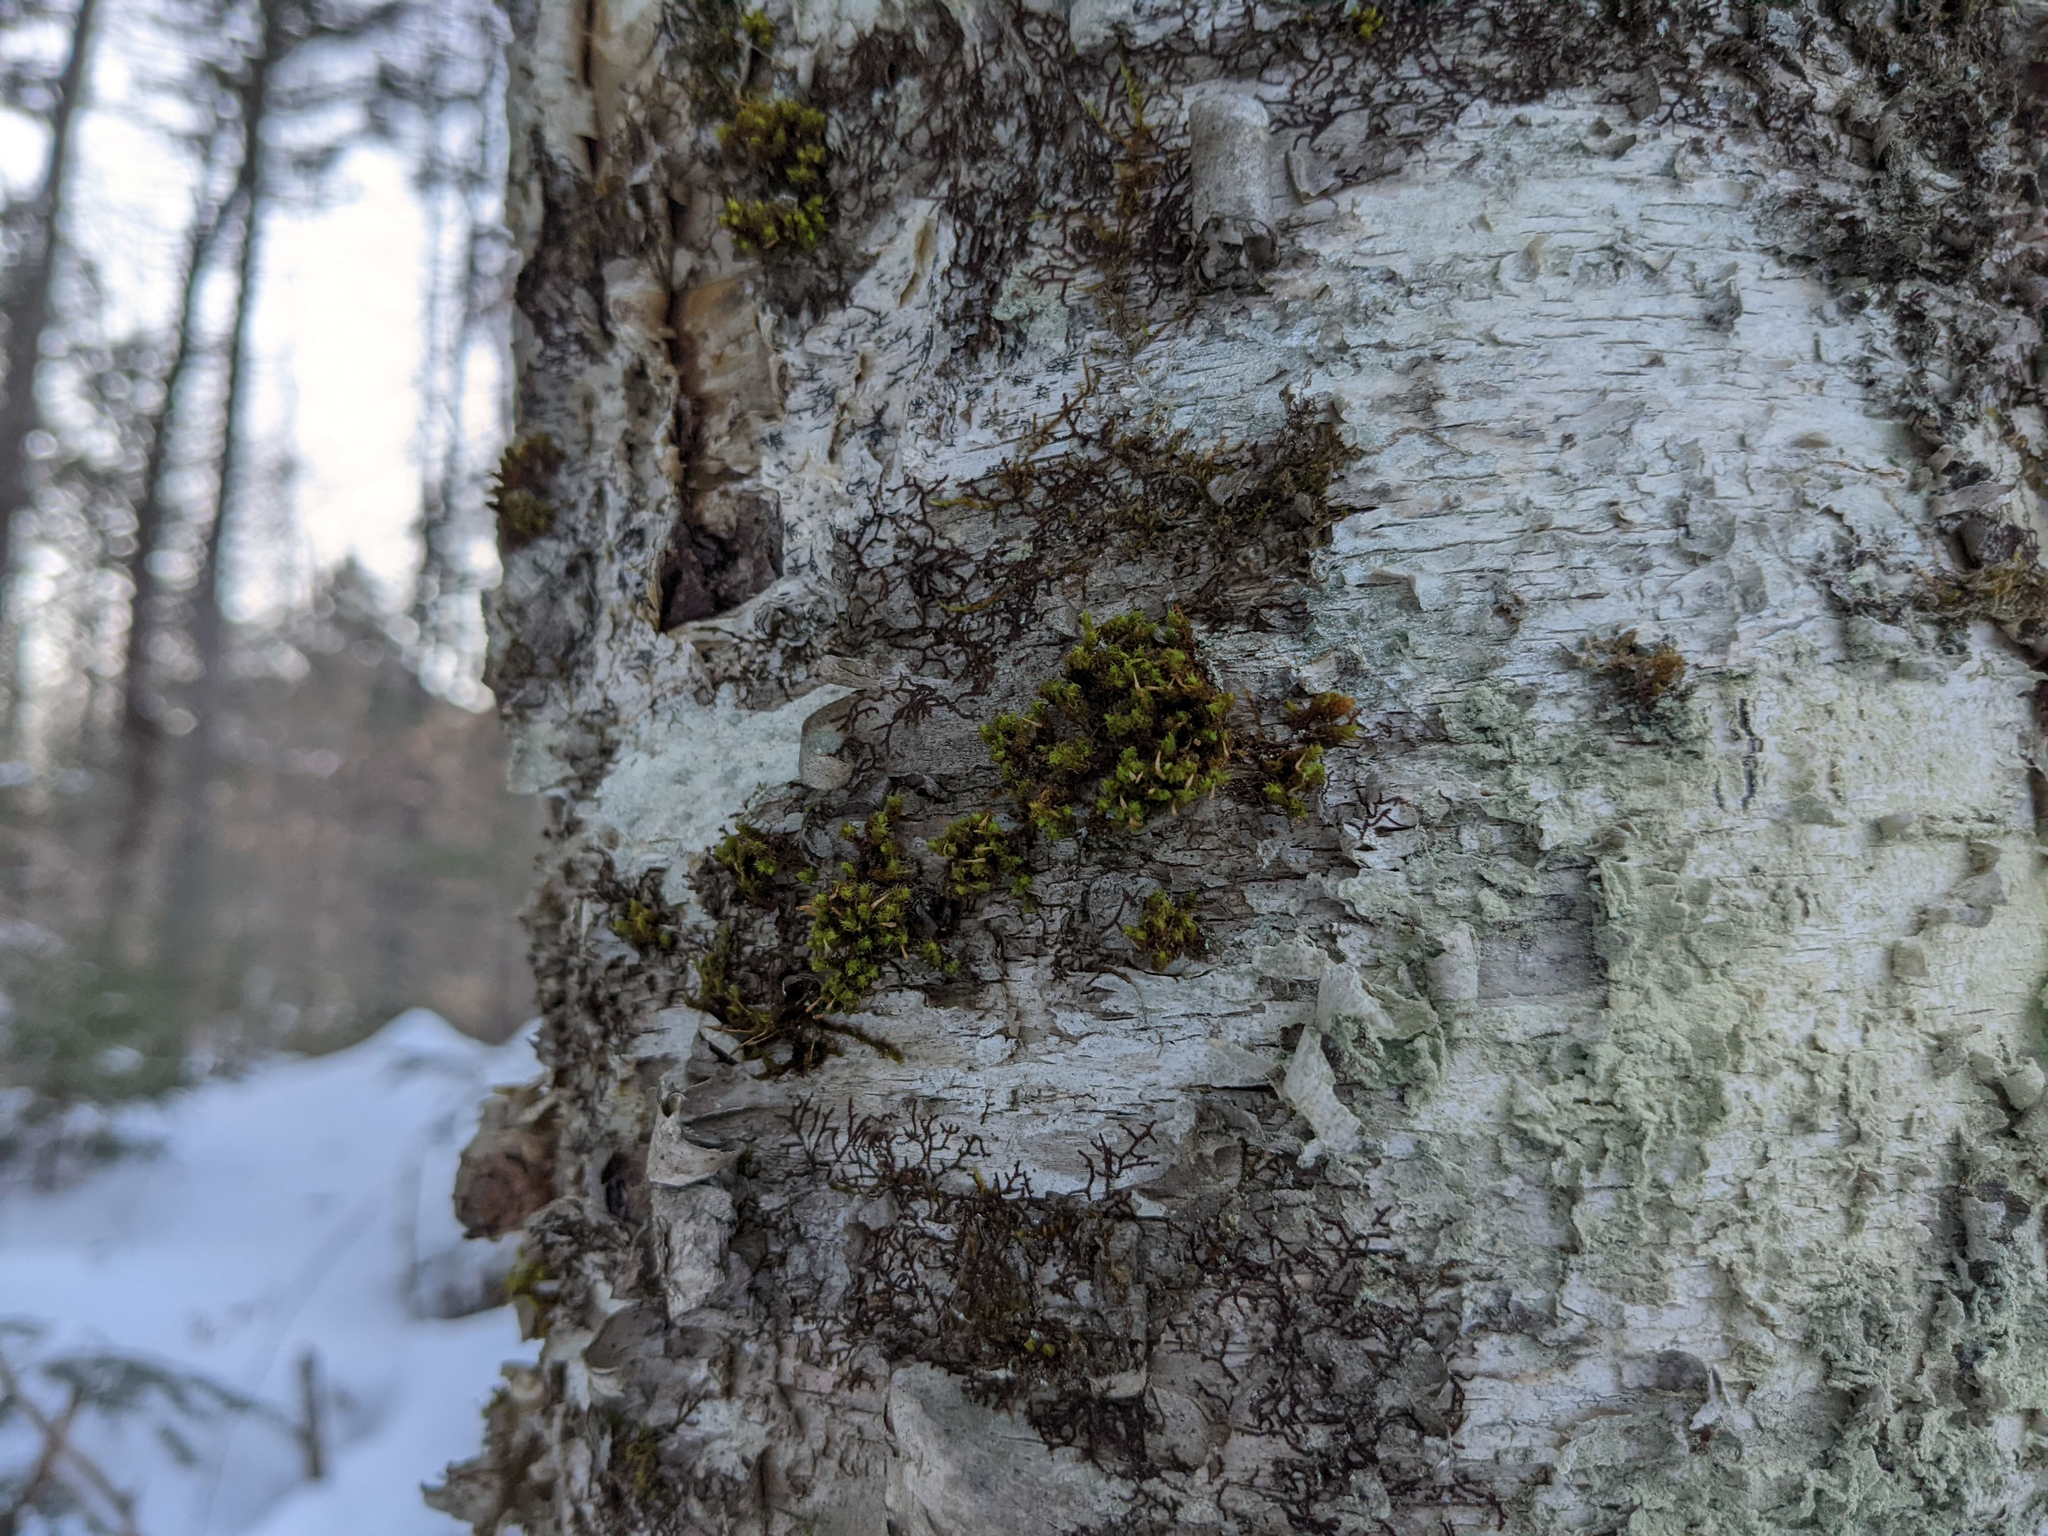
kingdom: Plantae
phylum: Bryophyta
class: Bryopsida
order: Orthotrichales
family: Orthotrichaceae
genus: Ulota
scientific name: Ulota crispa
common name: Crisped pincushion moss
